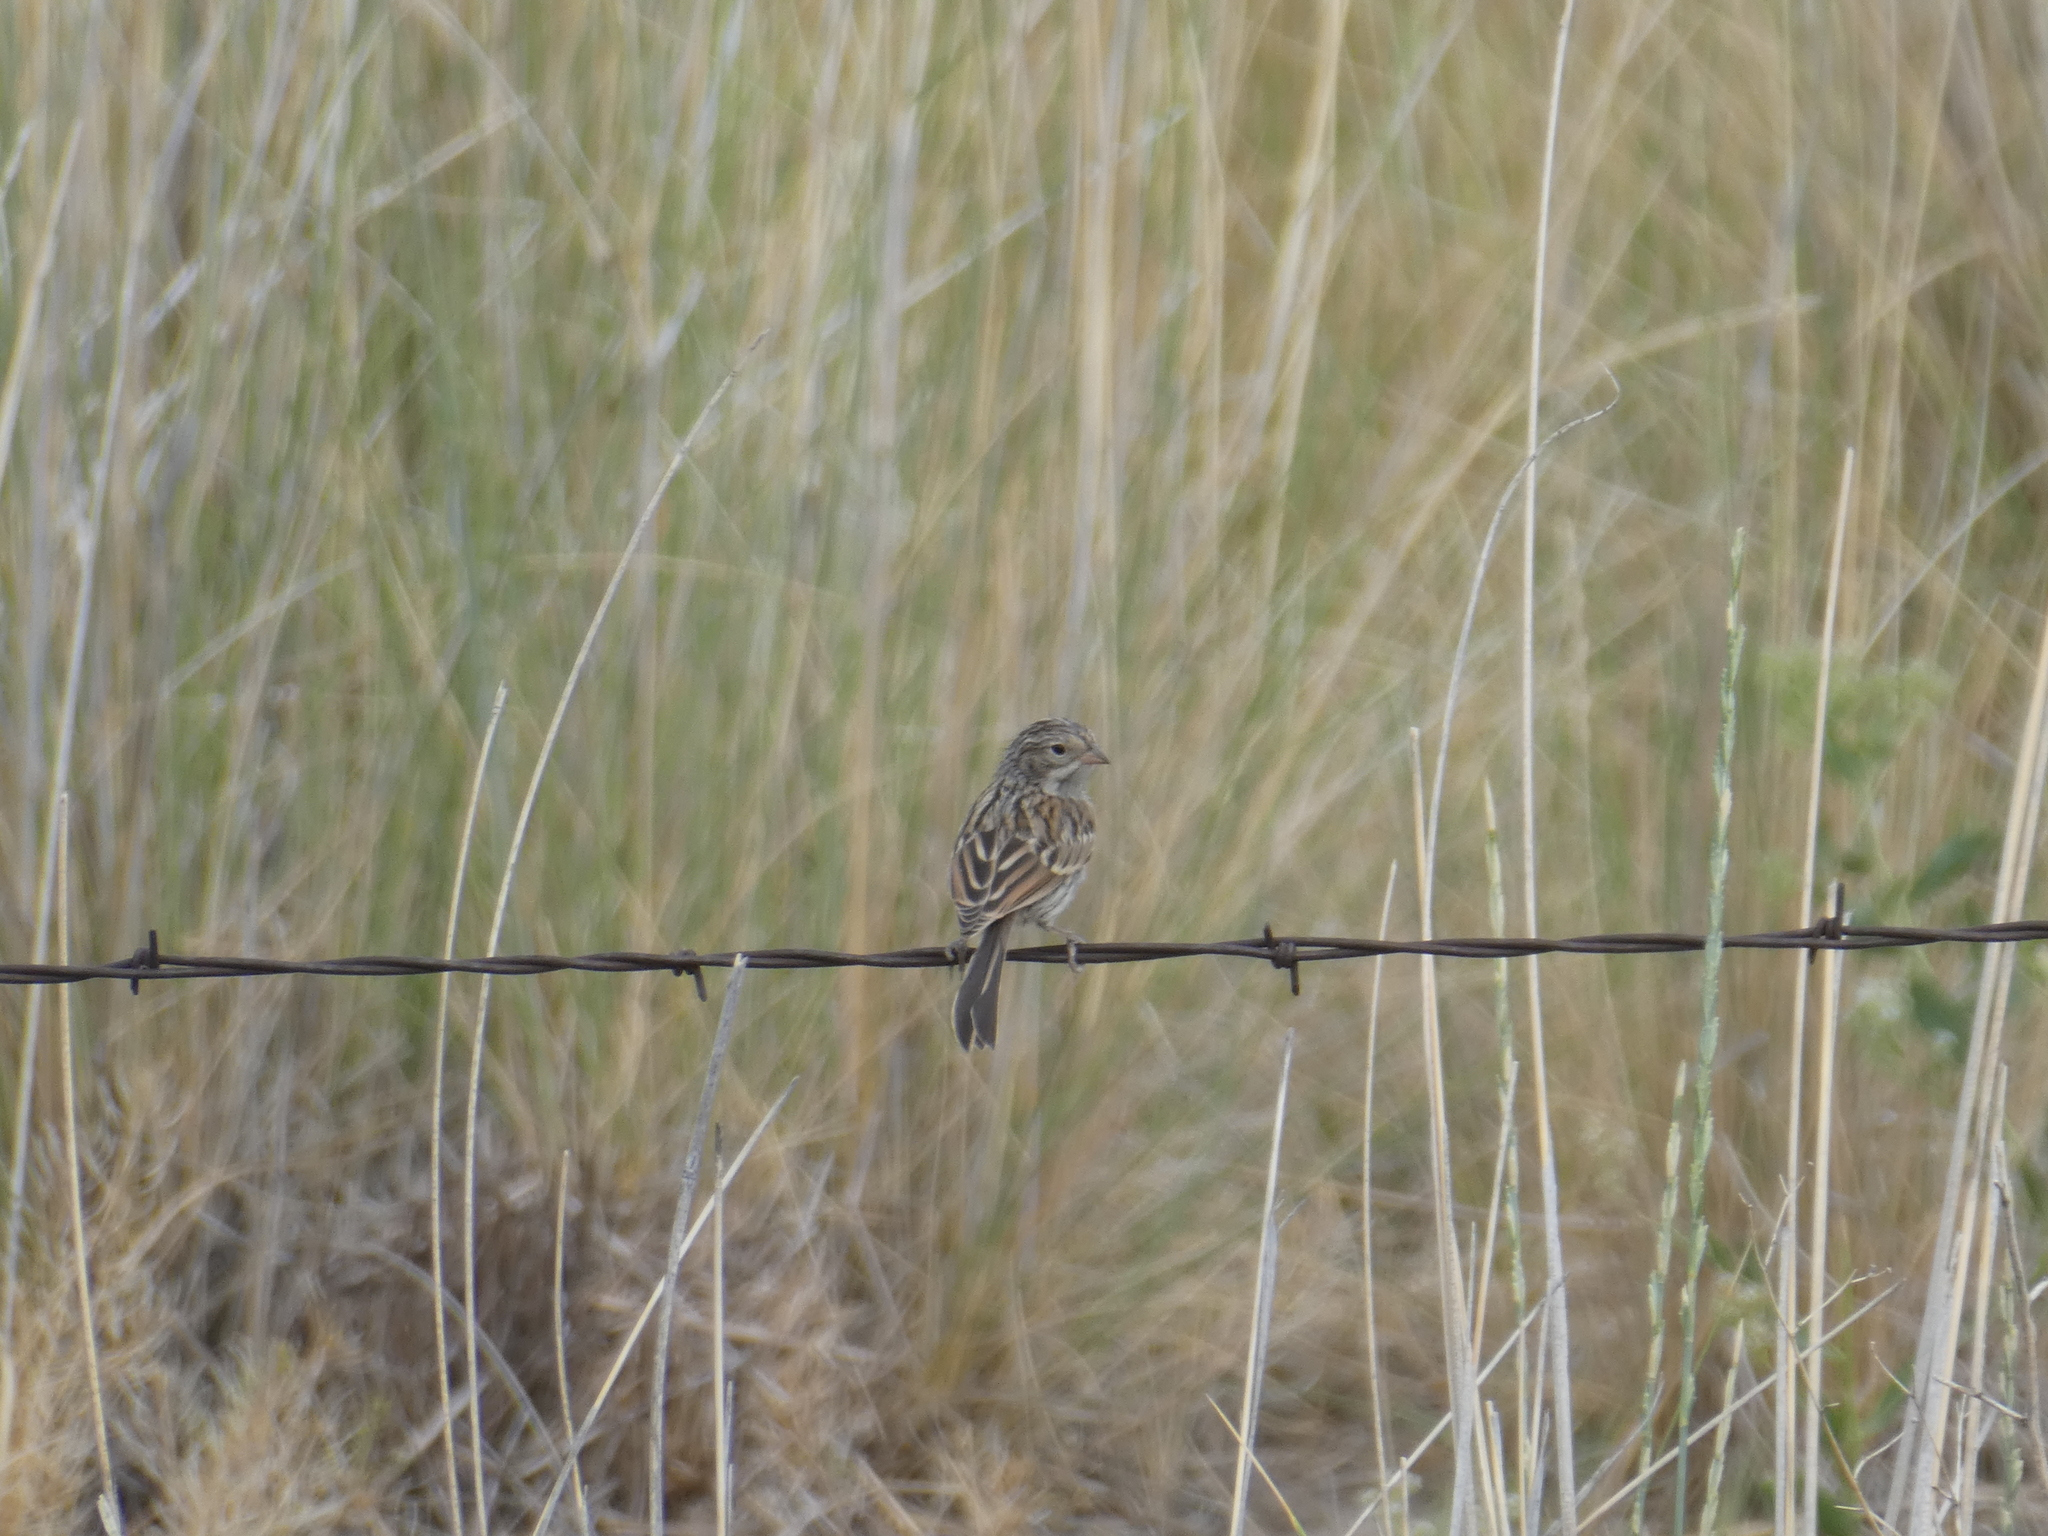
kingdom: Animalia
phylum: Chordata
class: Aves
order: Passeriformes
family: Passerellidae
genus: Spizella
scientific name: Spizella breweri
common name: Brewer's sparrow
